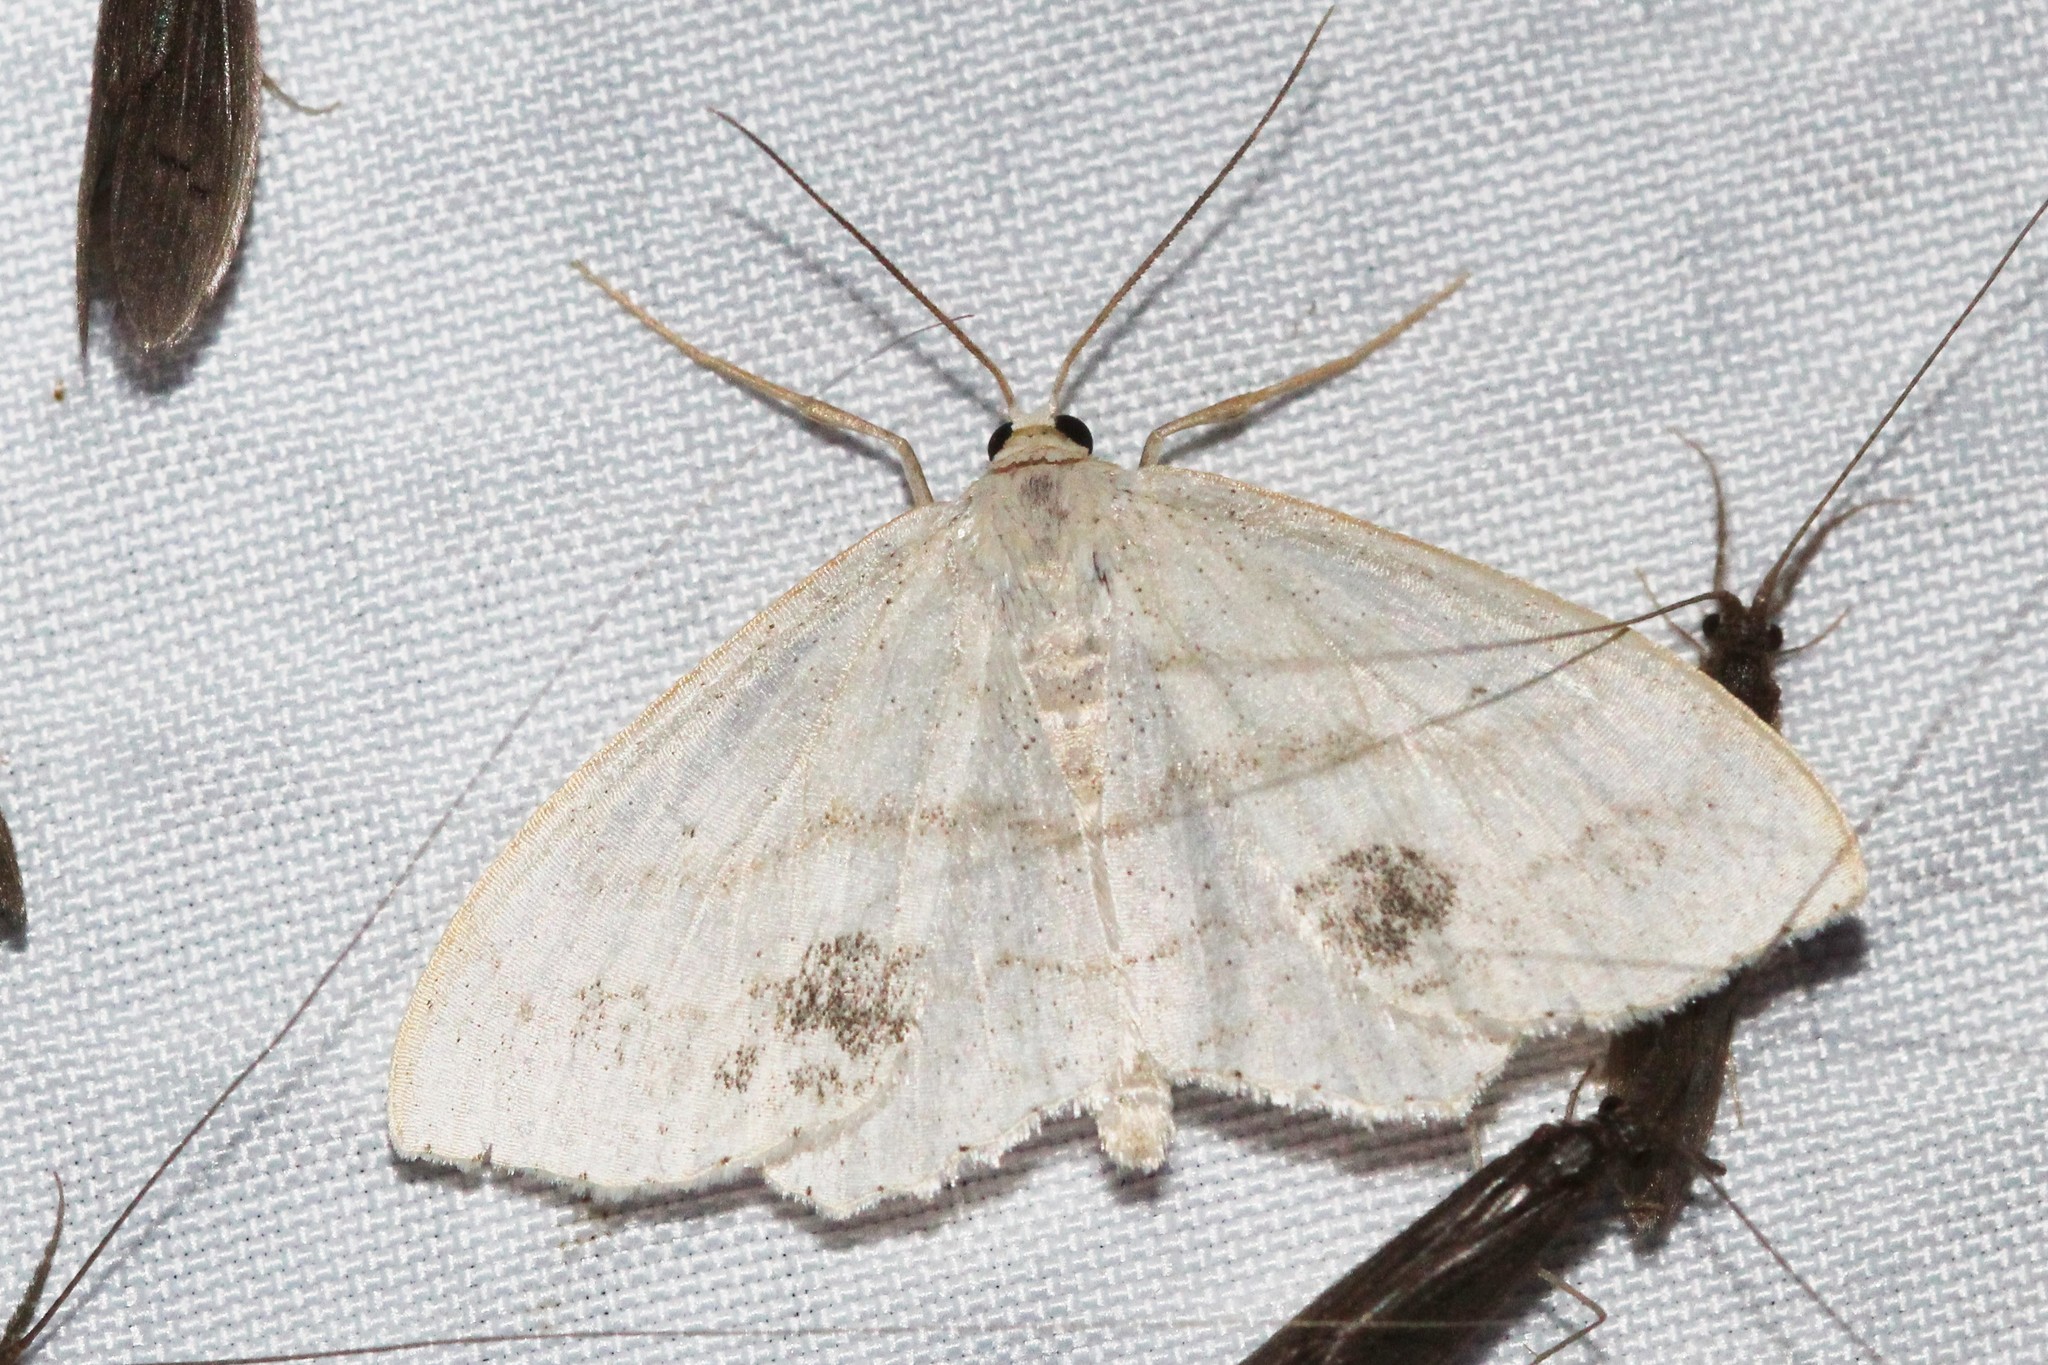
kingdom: Animalia
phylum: Arthropoda
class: Insecta
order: Lepidoptera
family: Geometridae
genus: Scopula
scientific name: Scopula limboundata
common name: Large lace border
